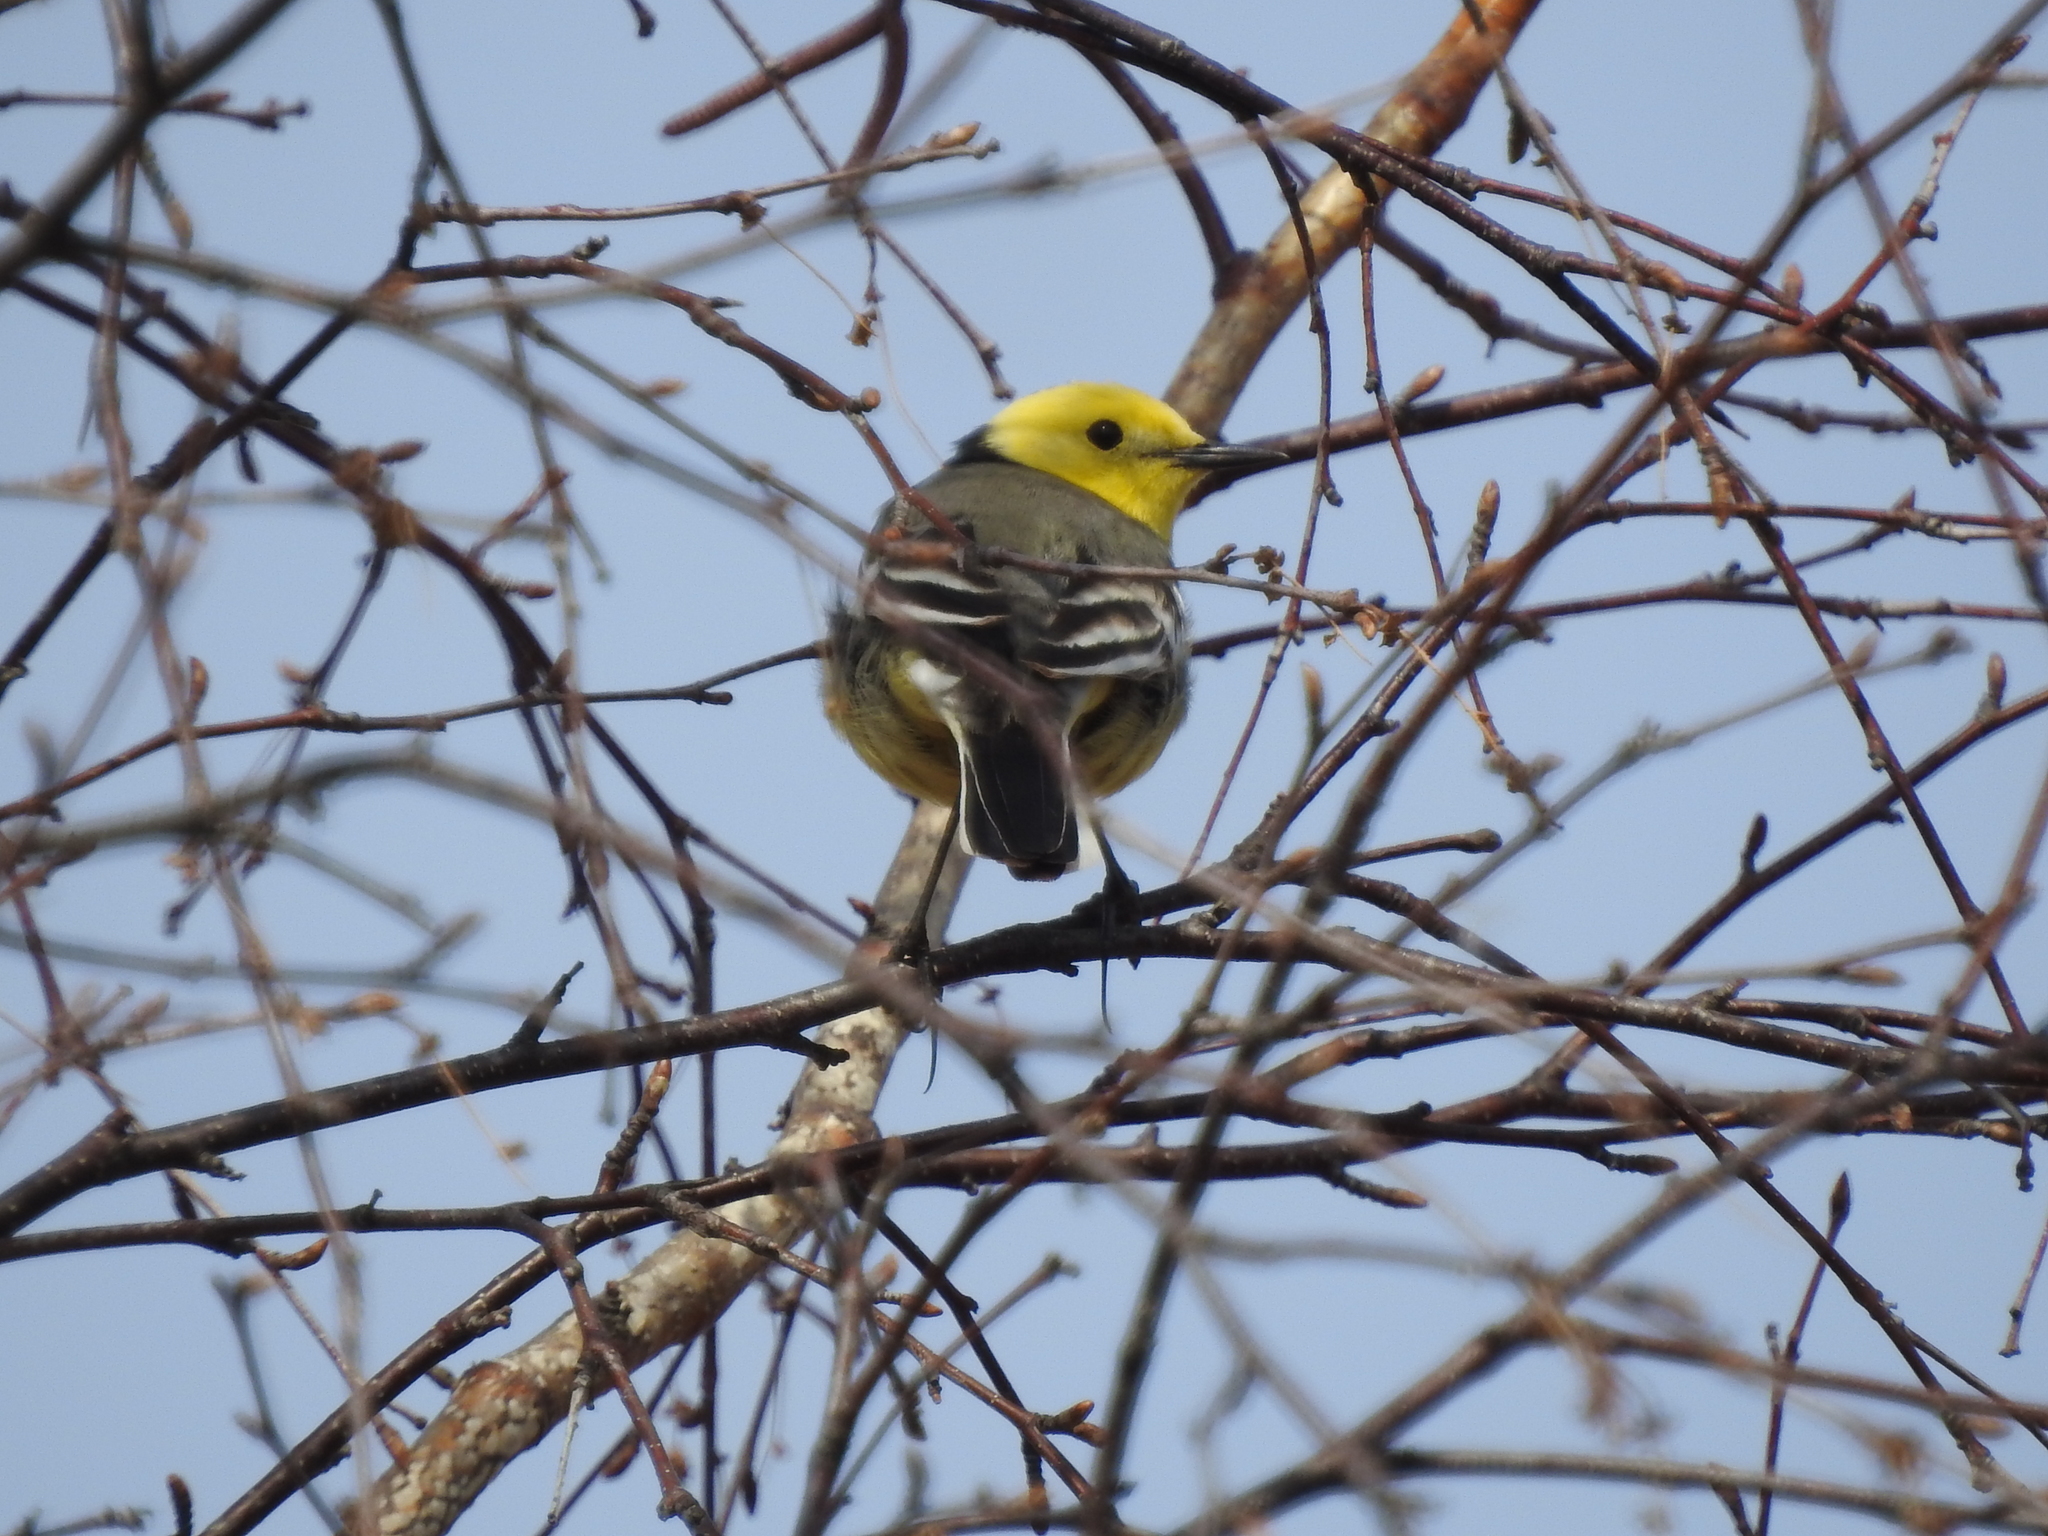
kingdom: Animalia
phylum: Chordata
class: Aves
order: Passeriformes
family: Motacillidae
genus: Motacilla
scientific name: Motacilla citreola
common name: Citrine wagtail
